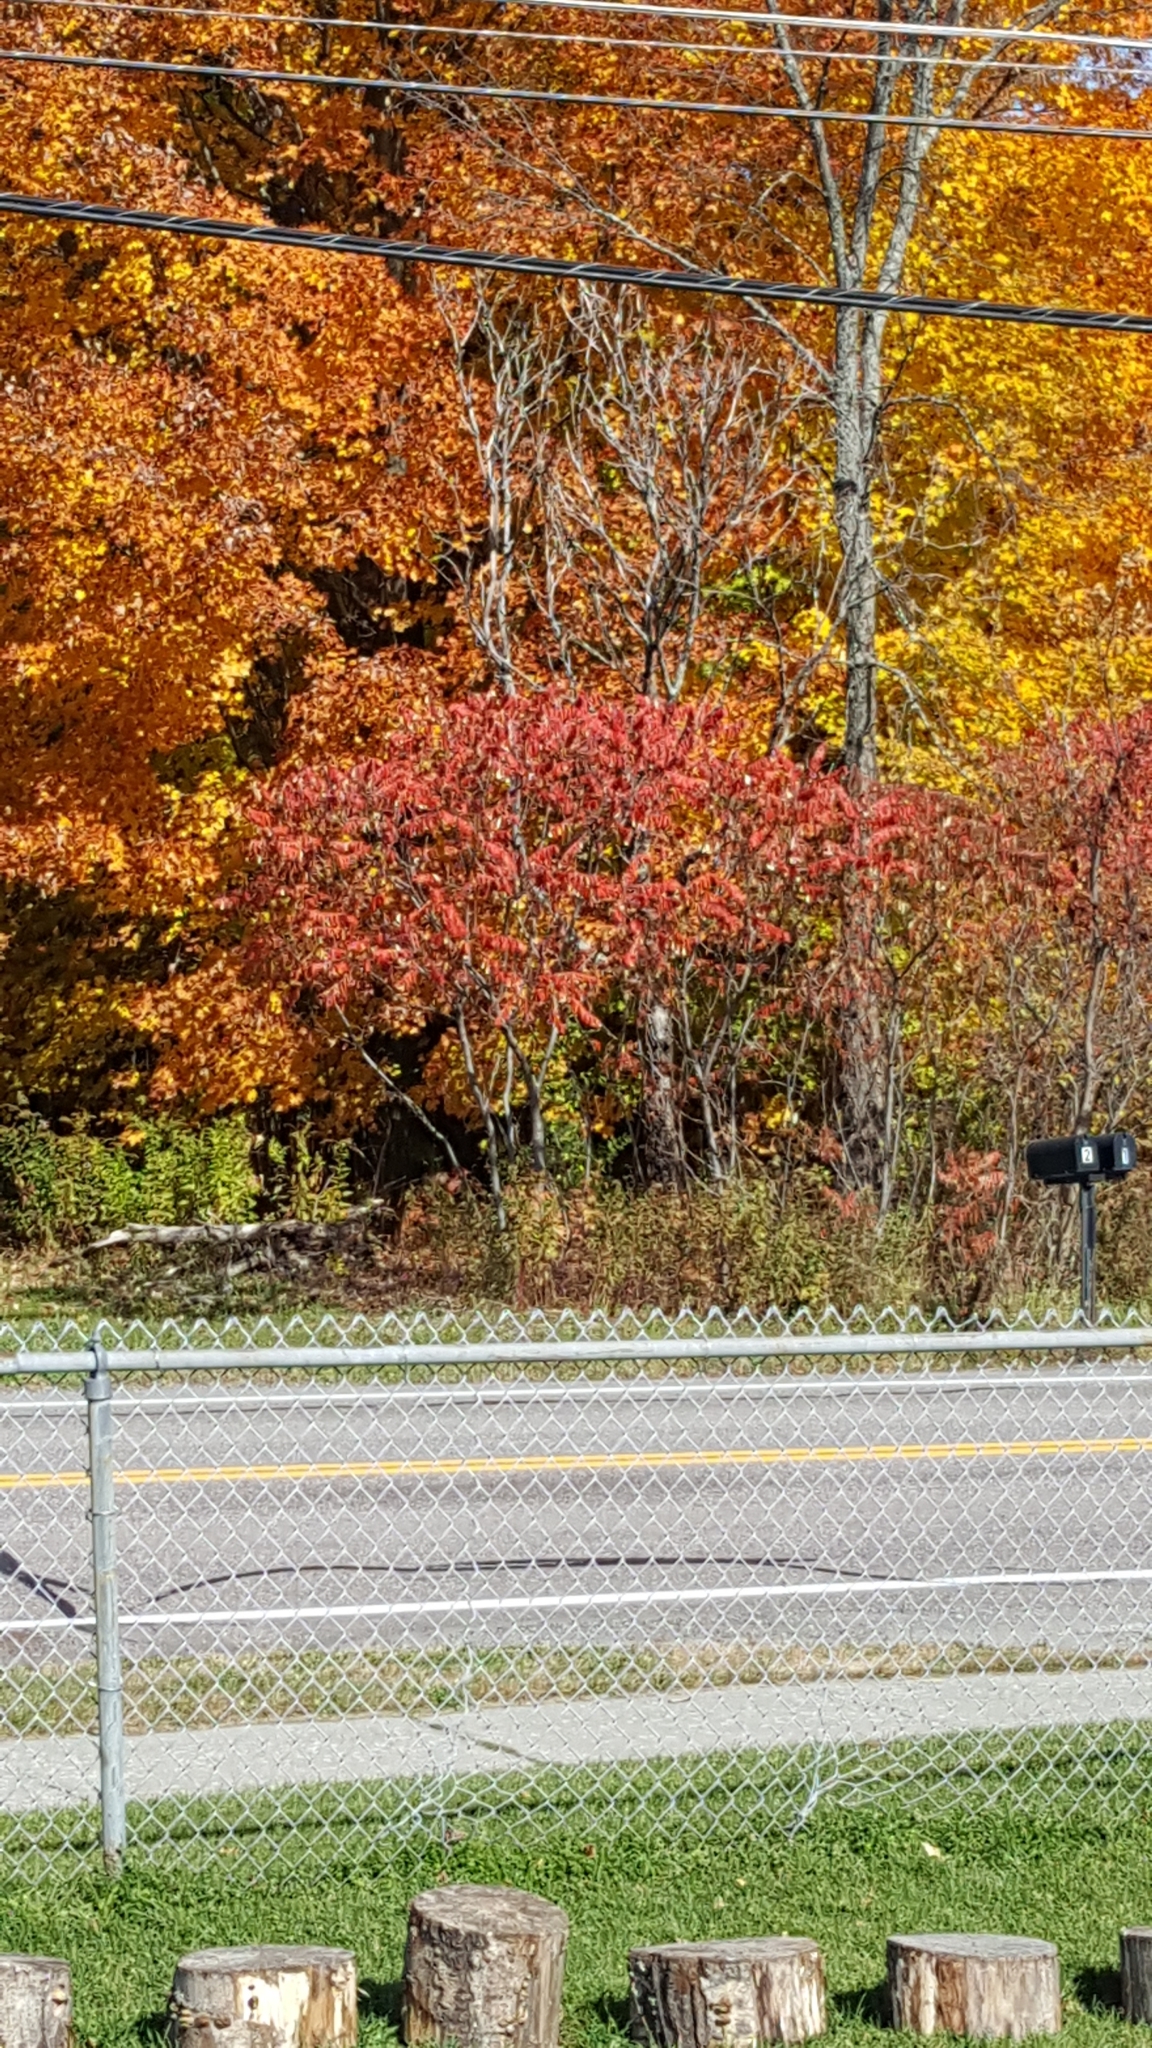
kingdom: Plantae
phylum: Tracheophyta
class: Magnoliopsida
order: Sapindales
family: Anacardiaceae
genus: Rhus
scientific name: Rhus typhina
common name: Staghorn sumac
